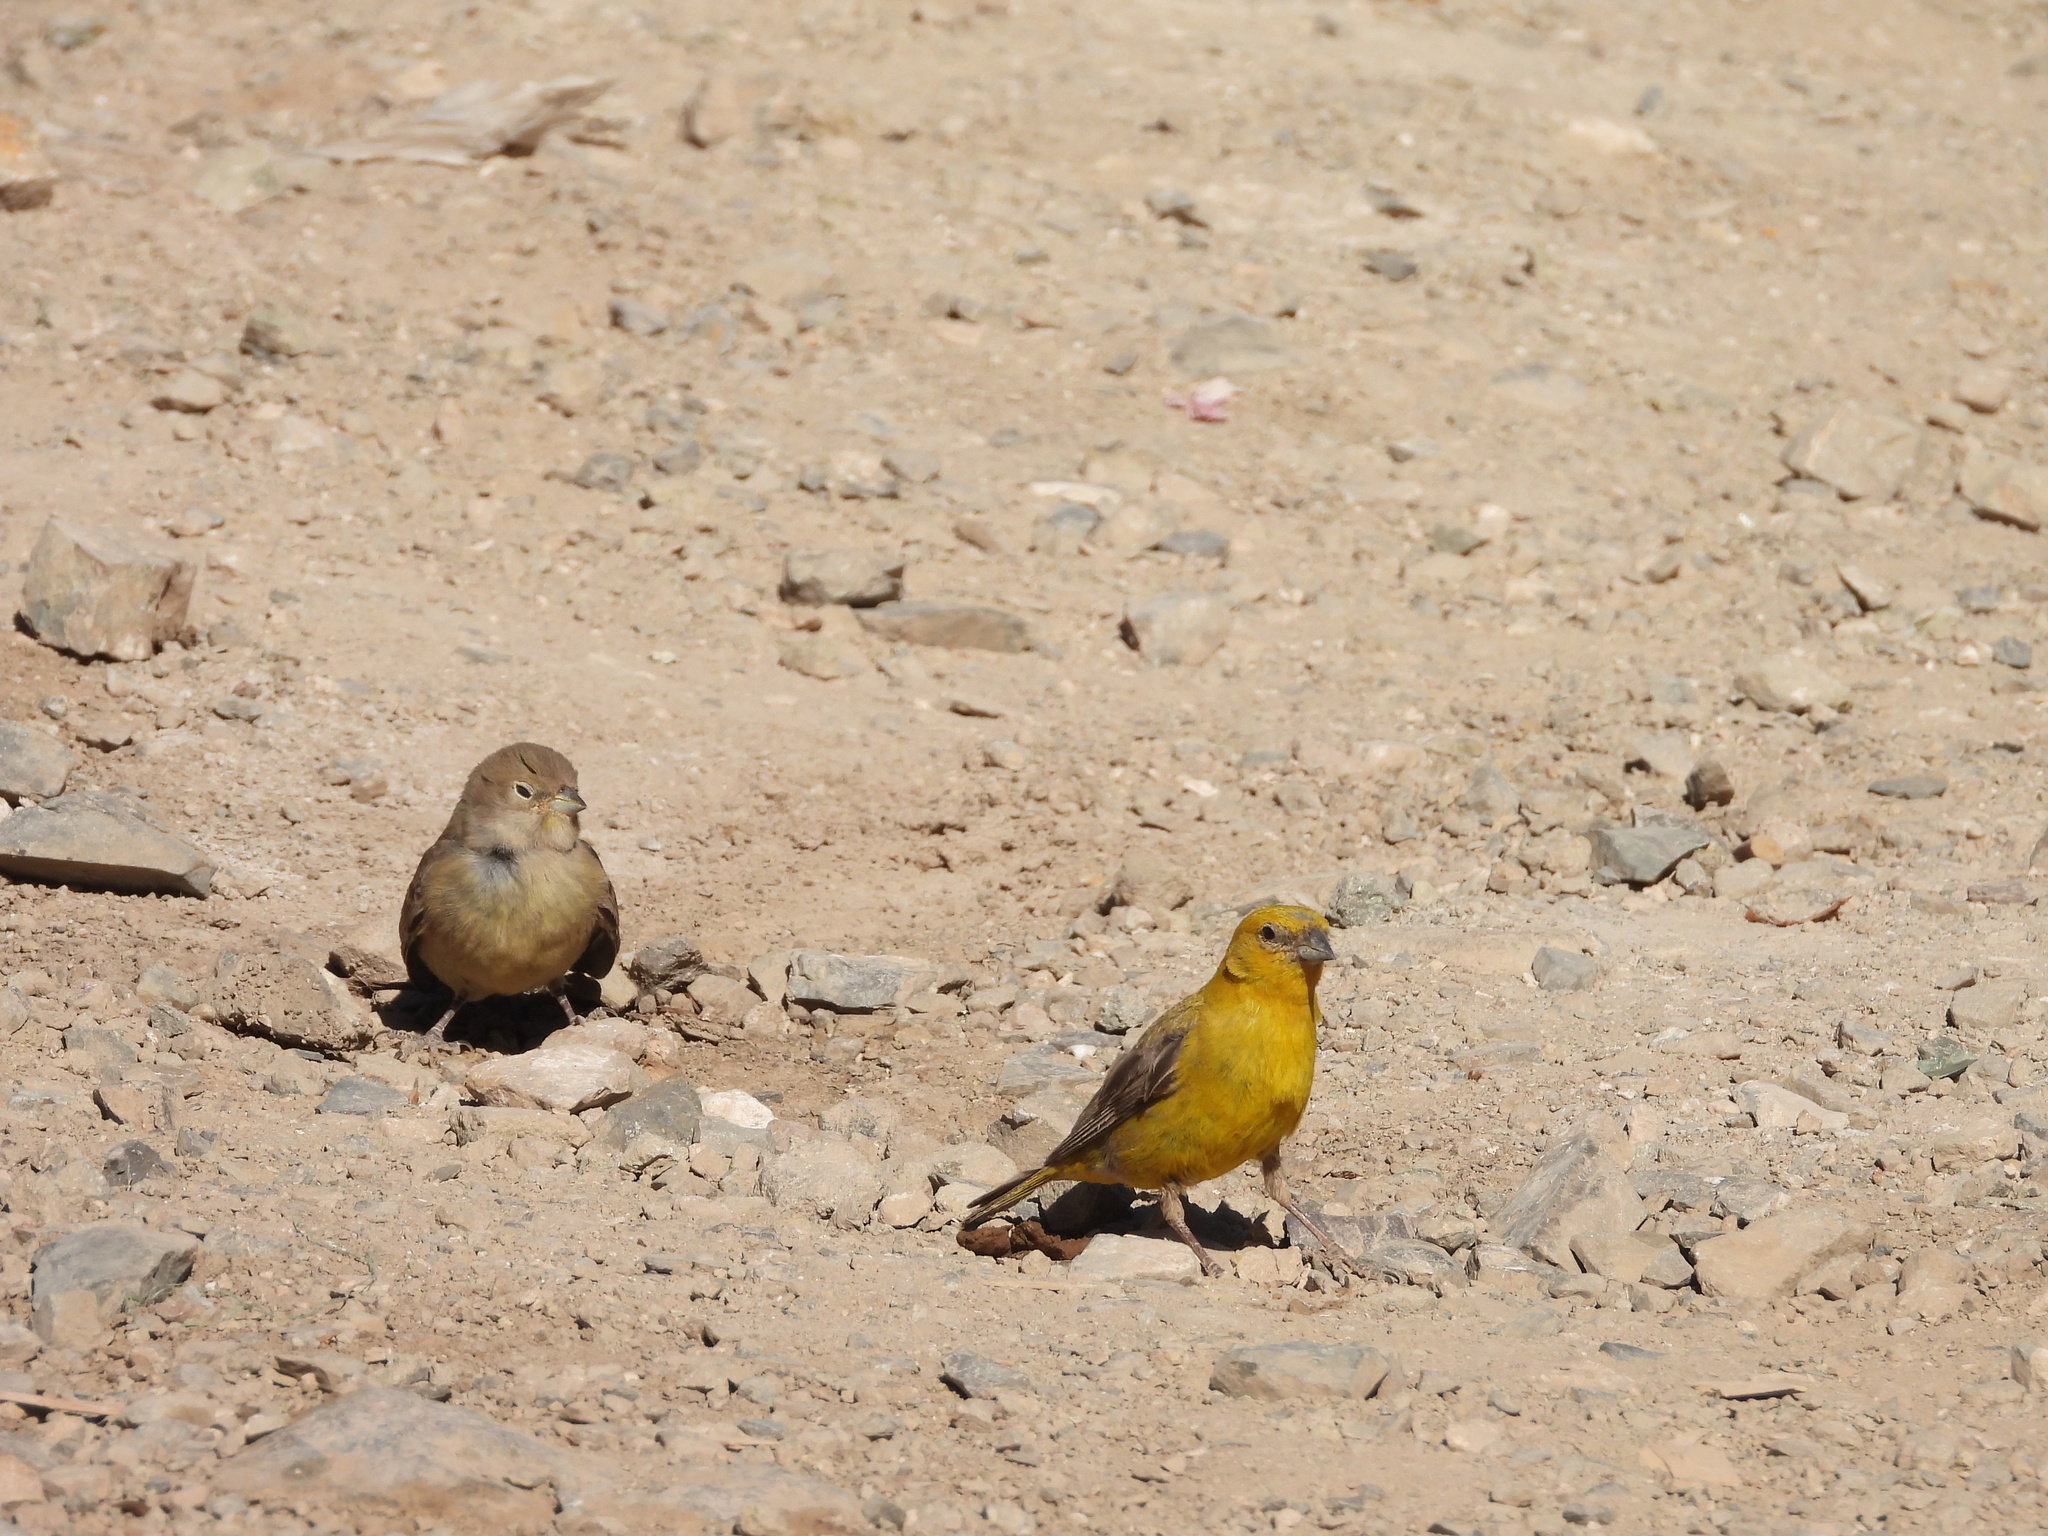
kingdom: Animalia
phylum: Chordata
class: Aves
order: Passeriformes
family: Thraupidae
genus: Sicalis
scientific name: Sicalis auriventris
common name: Greater yellow finch
